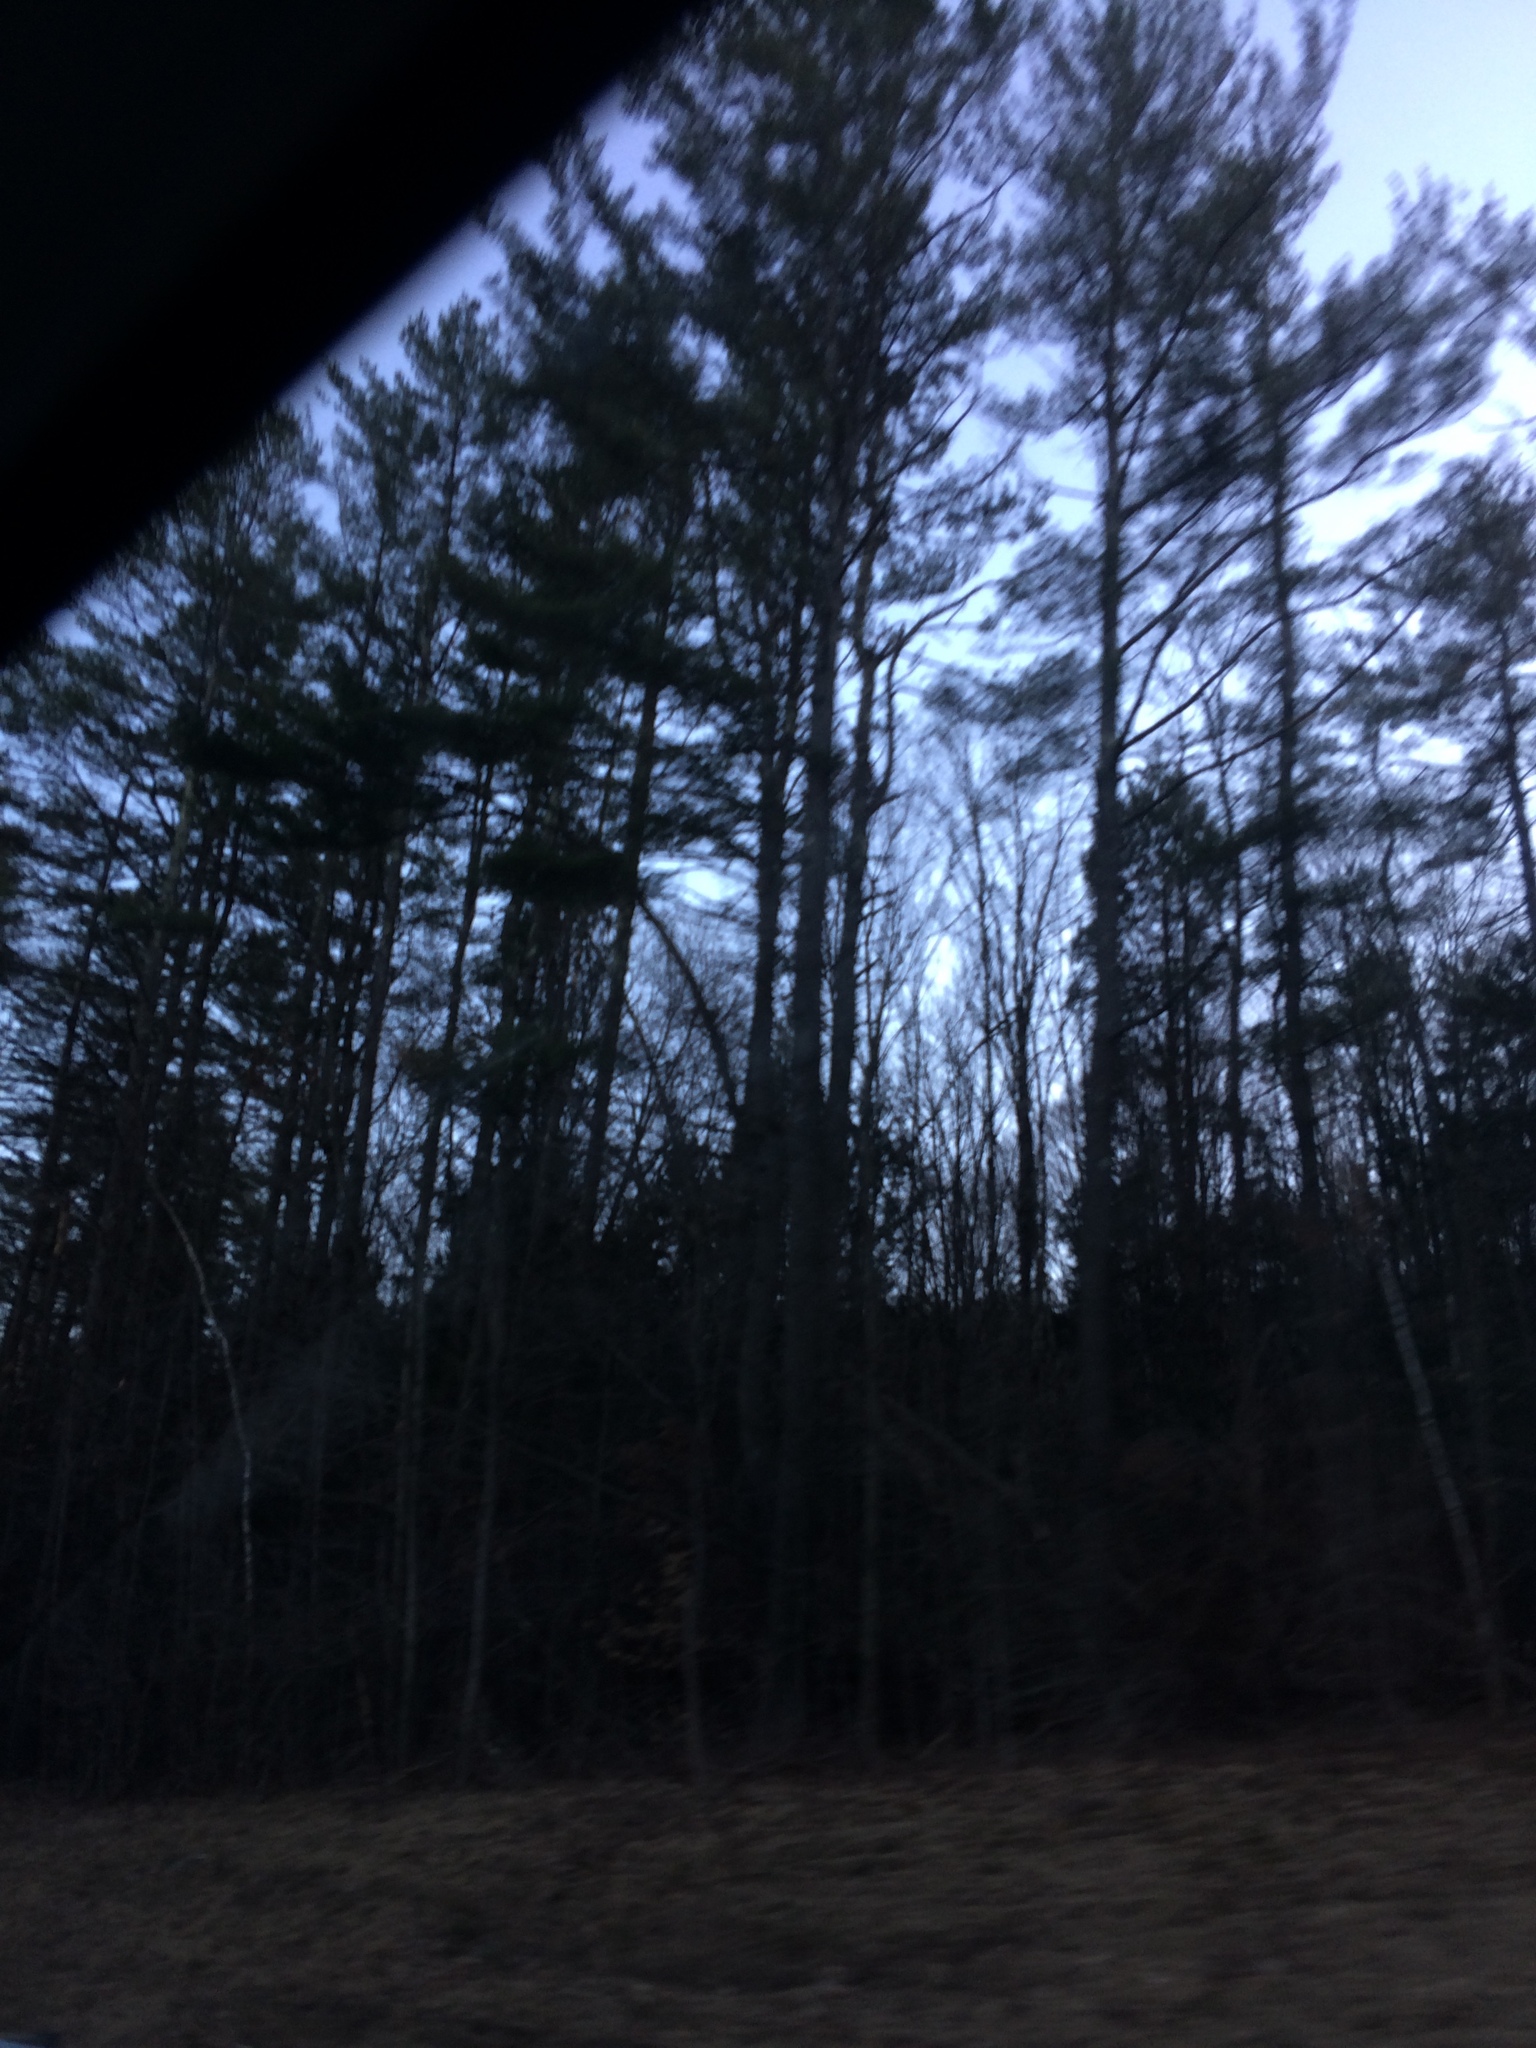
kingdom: Plantae
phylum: Tracheophyta
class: Pinopsida
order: Pinales
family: Pinaceae
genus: Pinus
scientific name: Pinus strobus
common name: Weymouth pine
